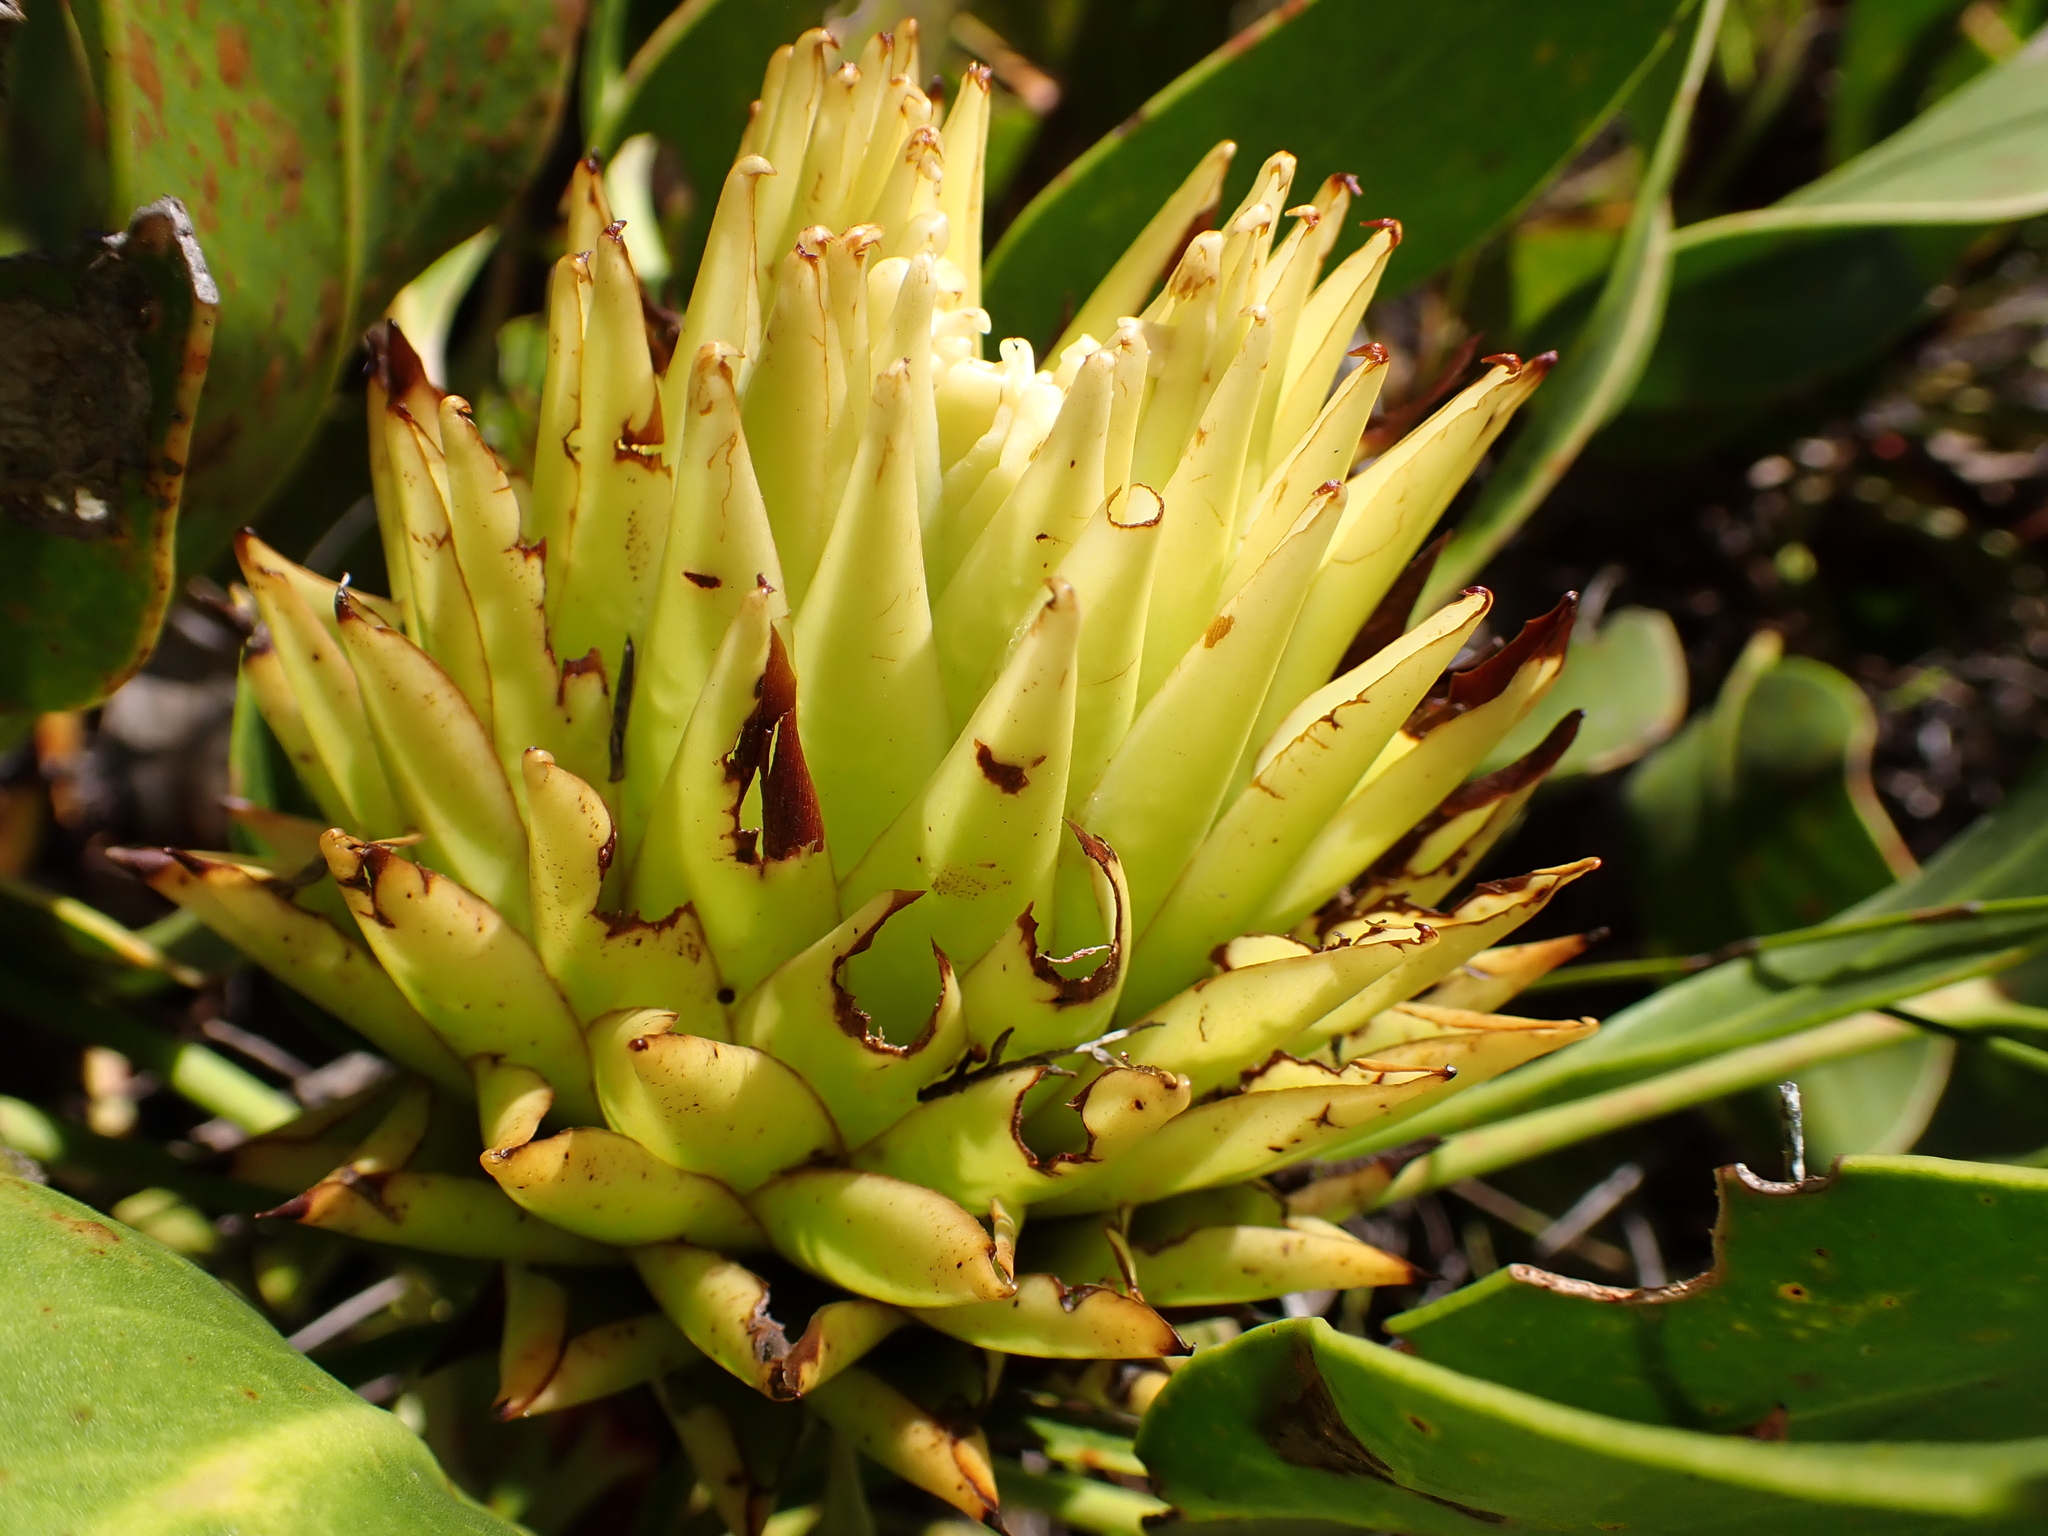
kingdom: Plantae
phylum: Tracheophyta
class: Magnoliopsida
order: Proteales
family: Proteaceae
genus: Protea
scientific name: Protea cynaroides
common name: King protea
